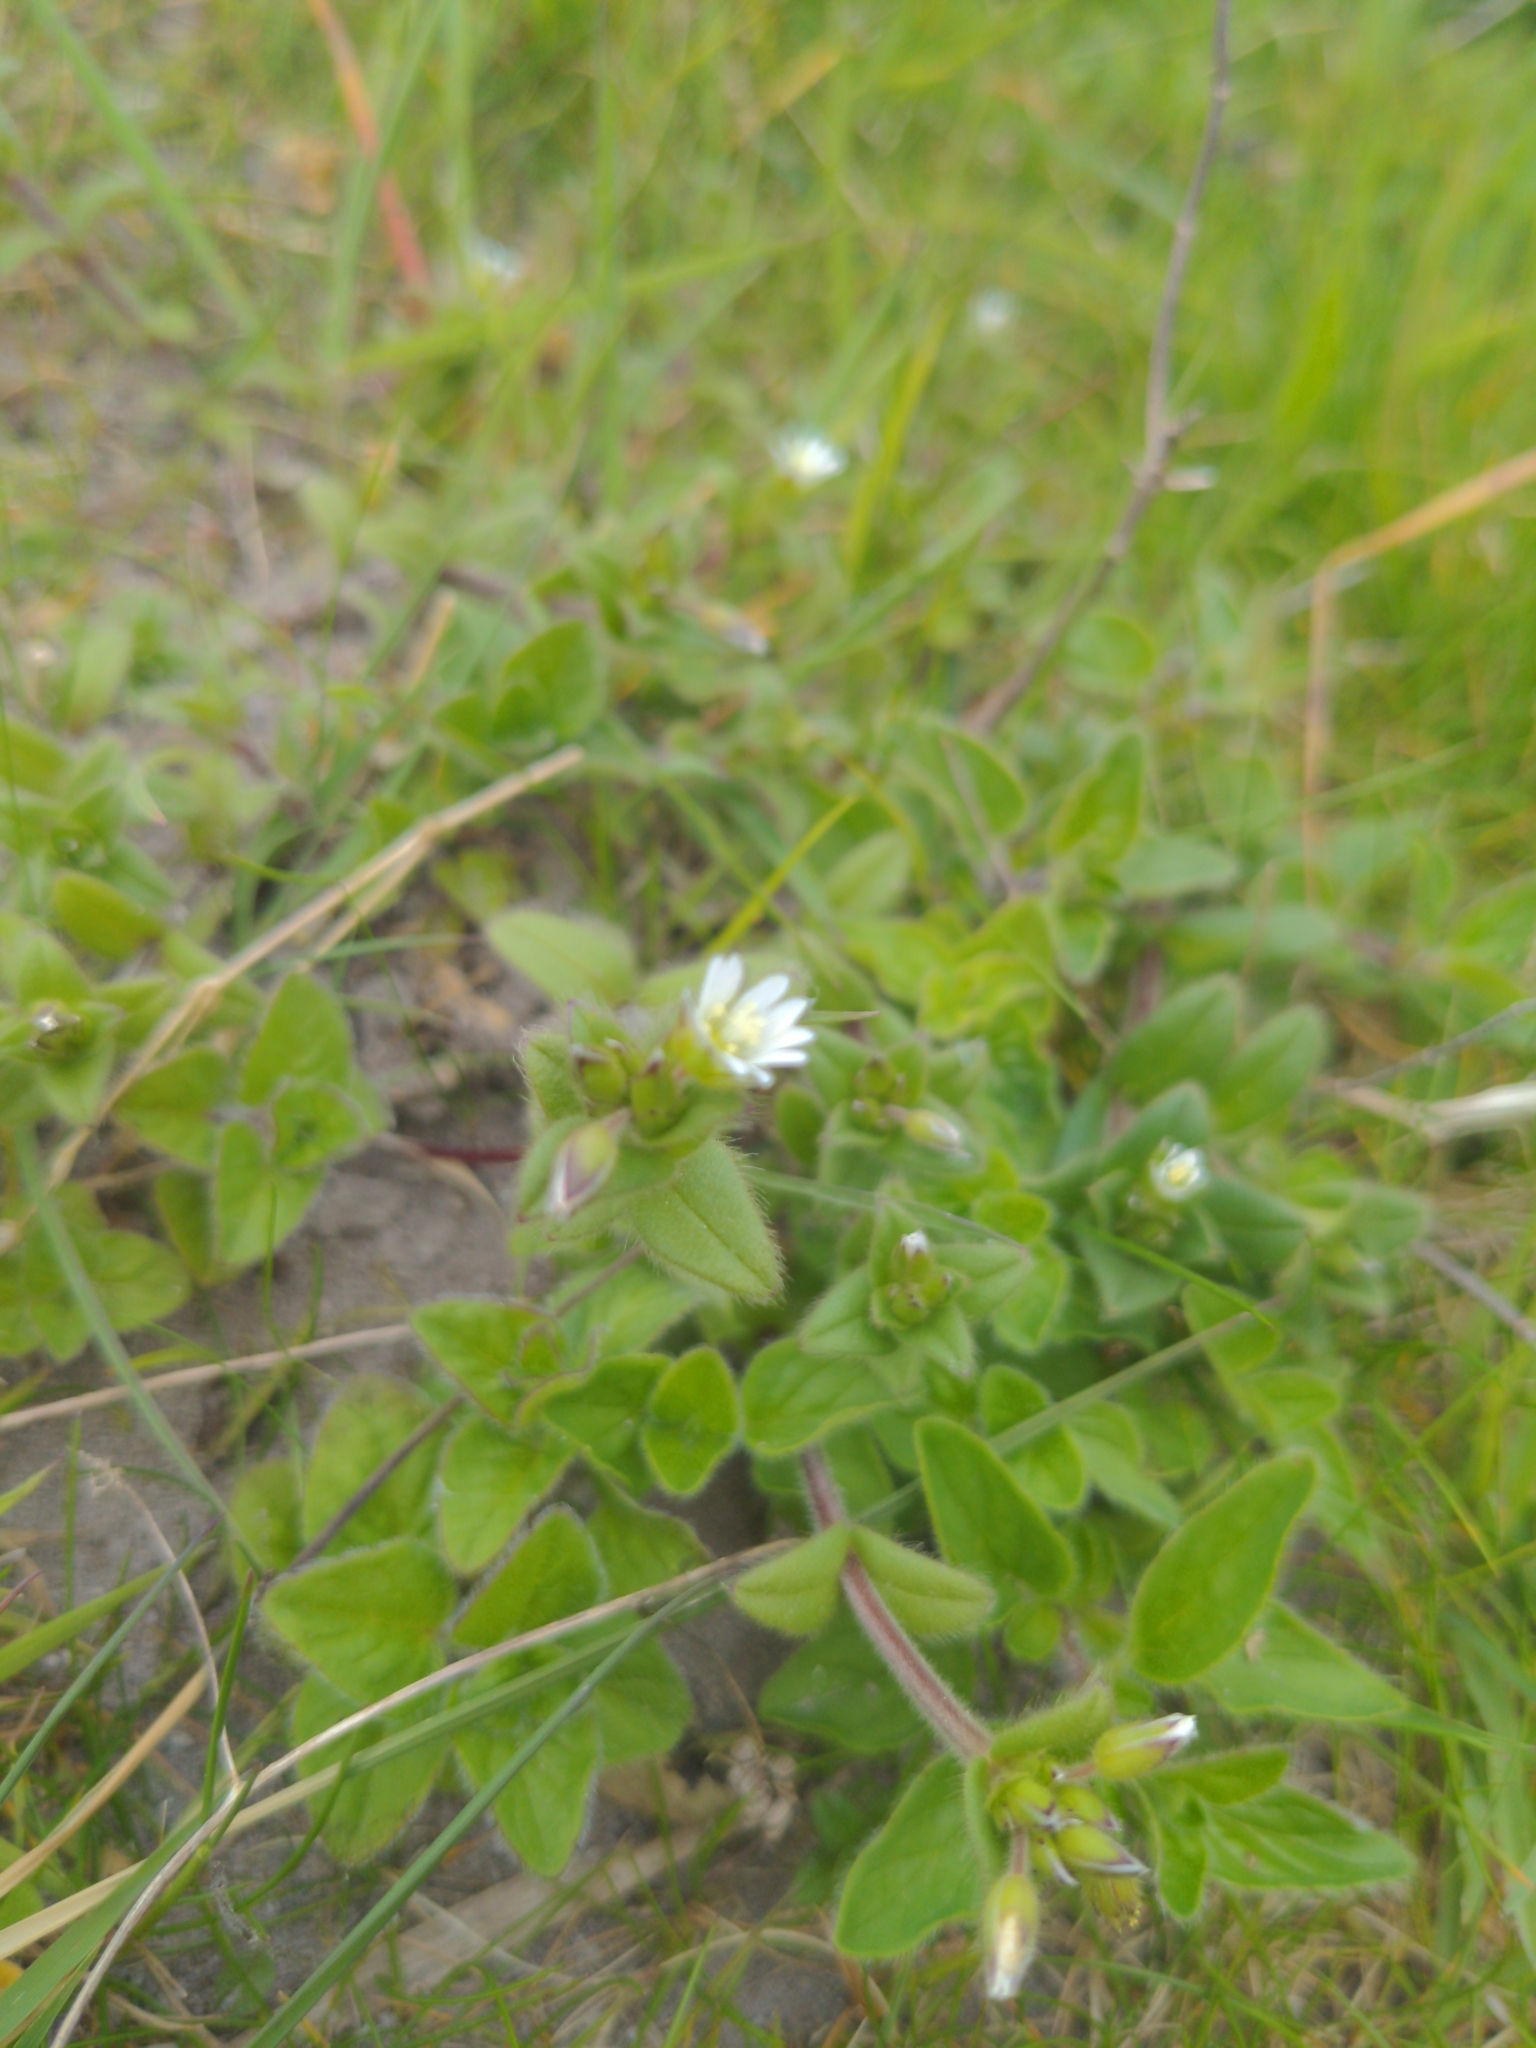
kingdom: Plantae
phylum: Tracheophyta
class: Magnoliopsida
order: Caryophyllales
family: Caryophyllaceae
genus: Cerastium
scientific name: Cerastium fontanum
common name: Common mouse-ear
